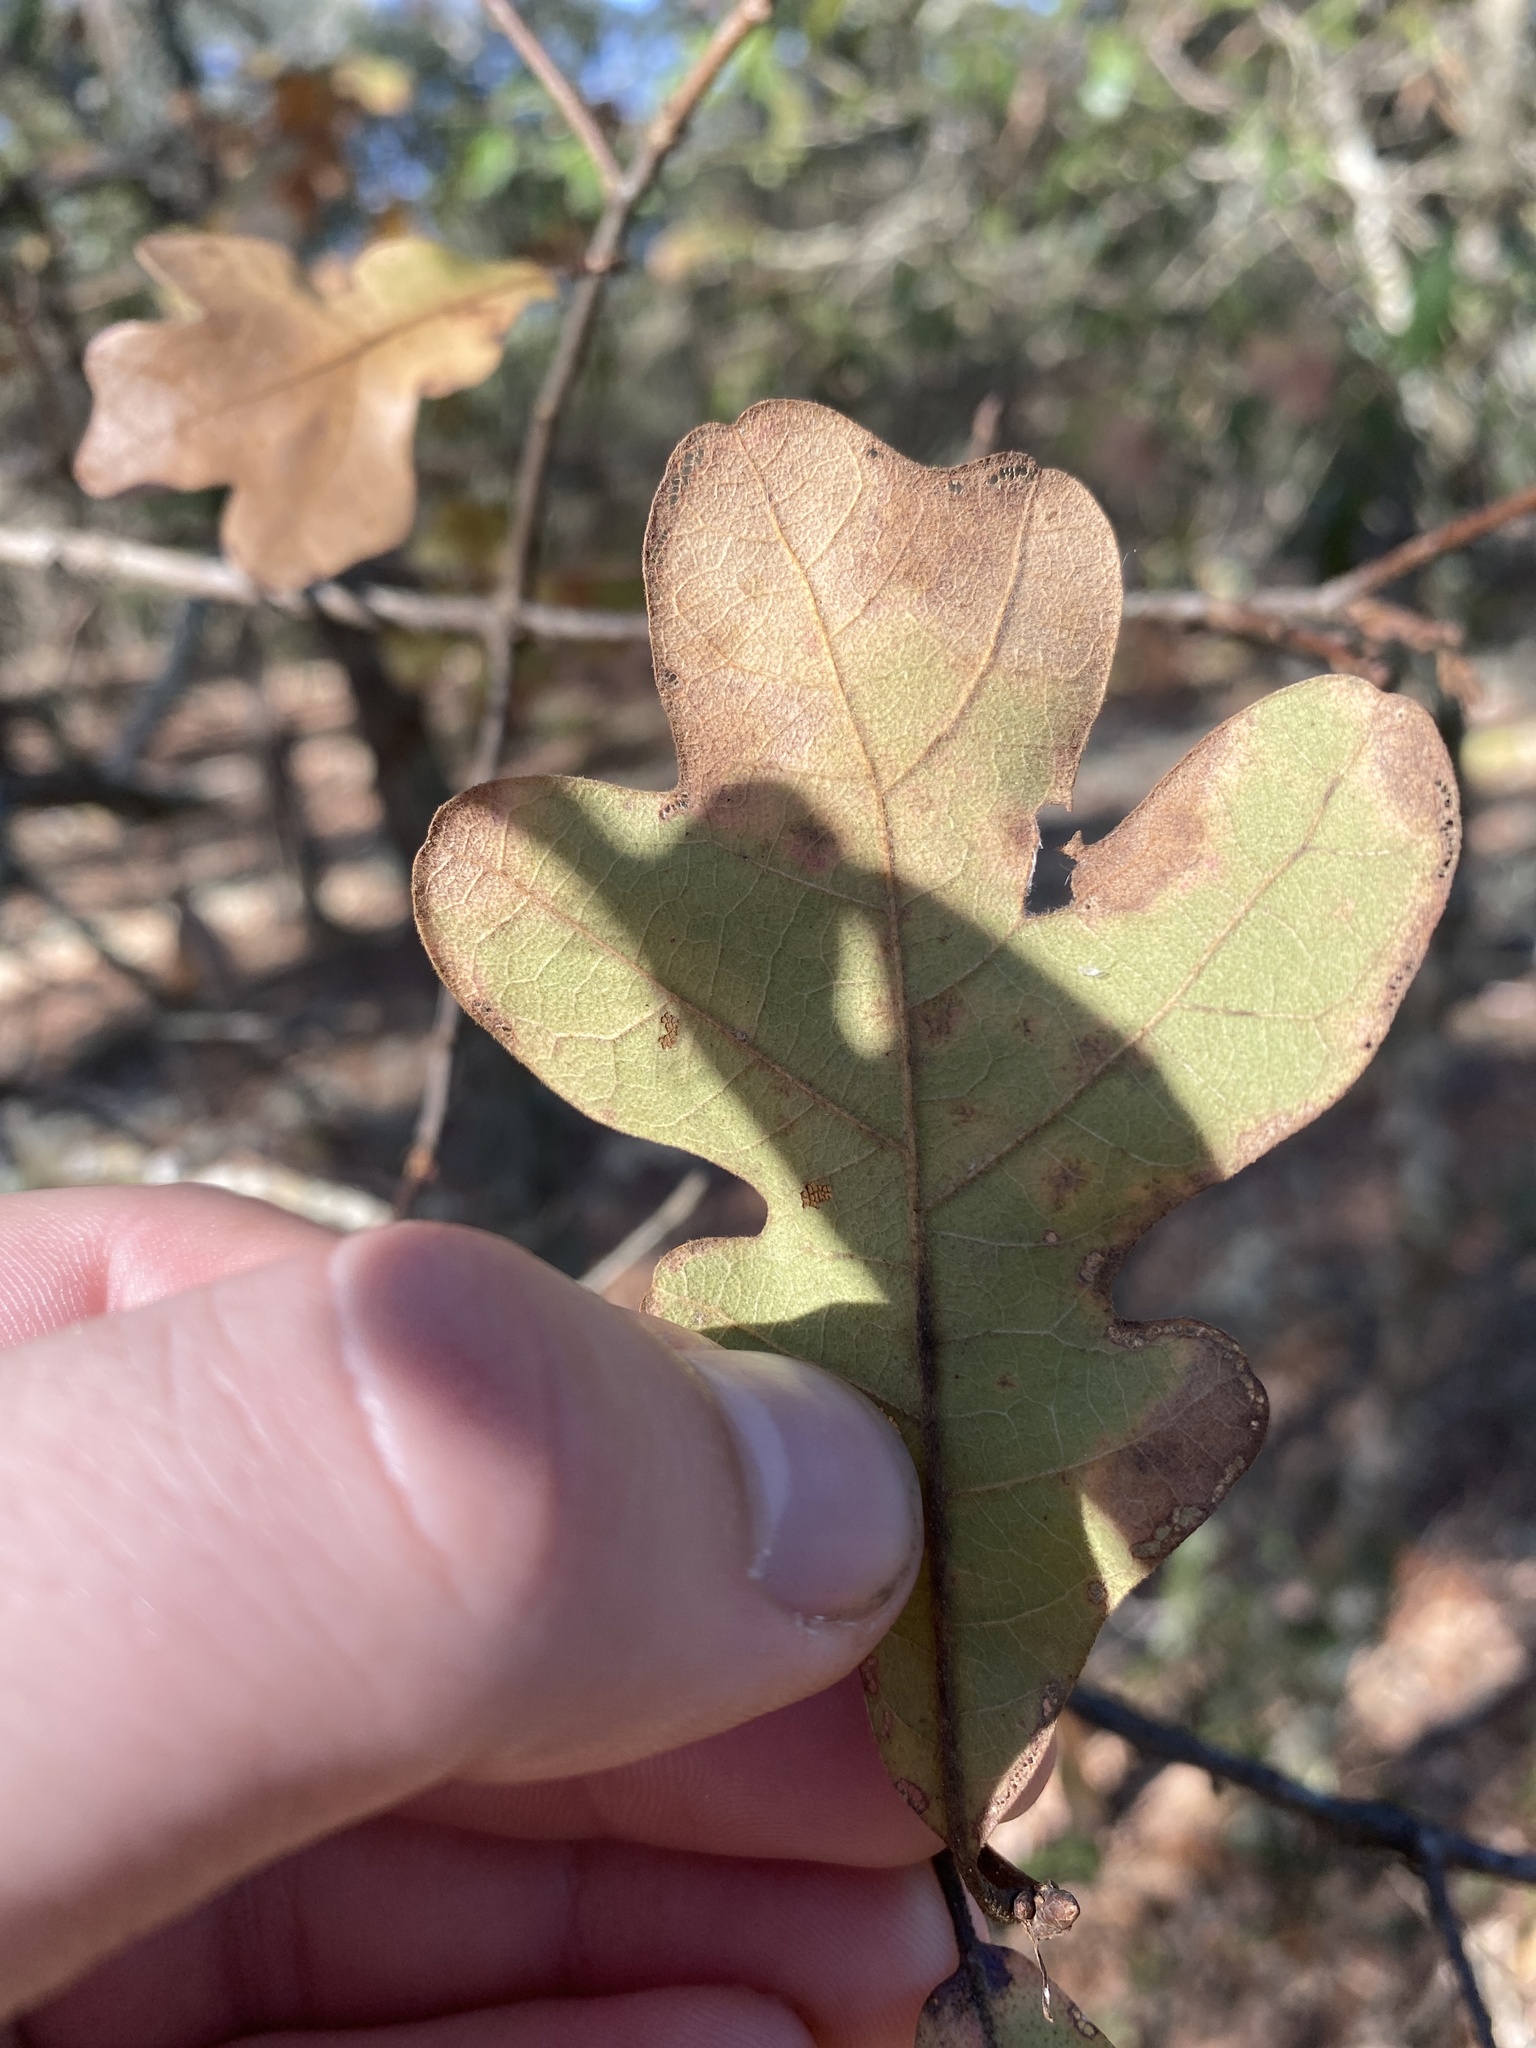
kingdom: Plantae
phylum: Tracheophyta
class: Magnoliopsida
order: Fagales
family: Fagaceae
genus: Quercus
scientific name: Quercus margaretiae
